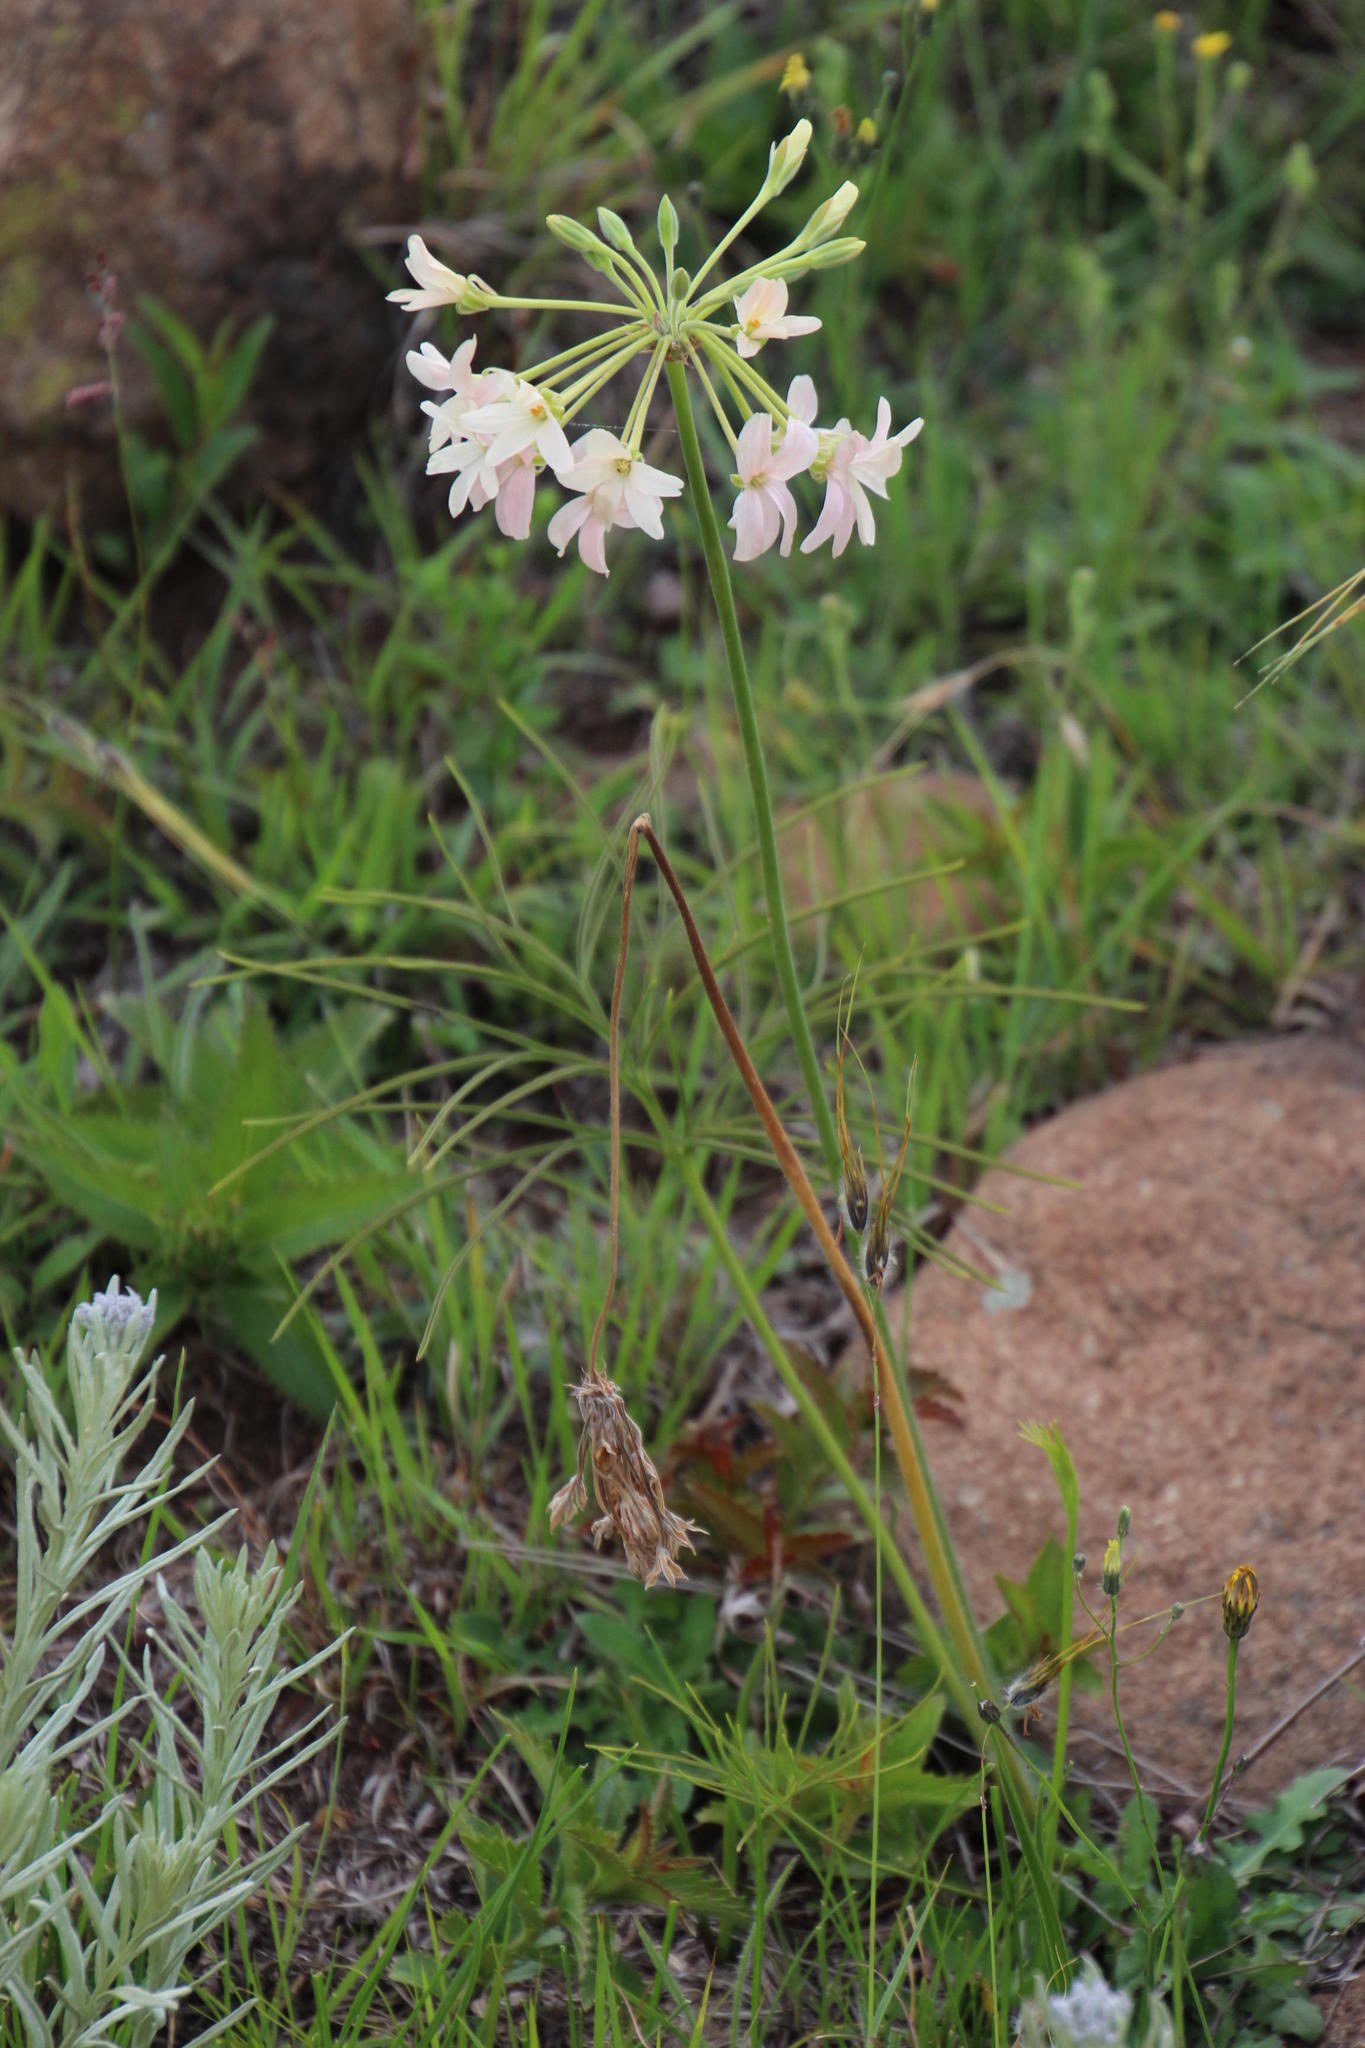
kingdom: Plantae
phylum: Tracheophyta
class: Magnoliopsida
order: Geraniales
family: Geraniaceae
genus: Pelargonium
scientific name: Pelargonium luridum
